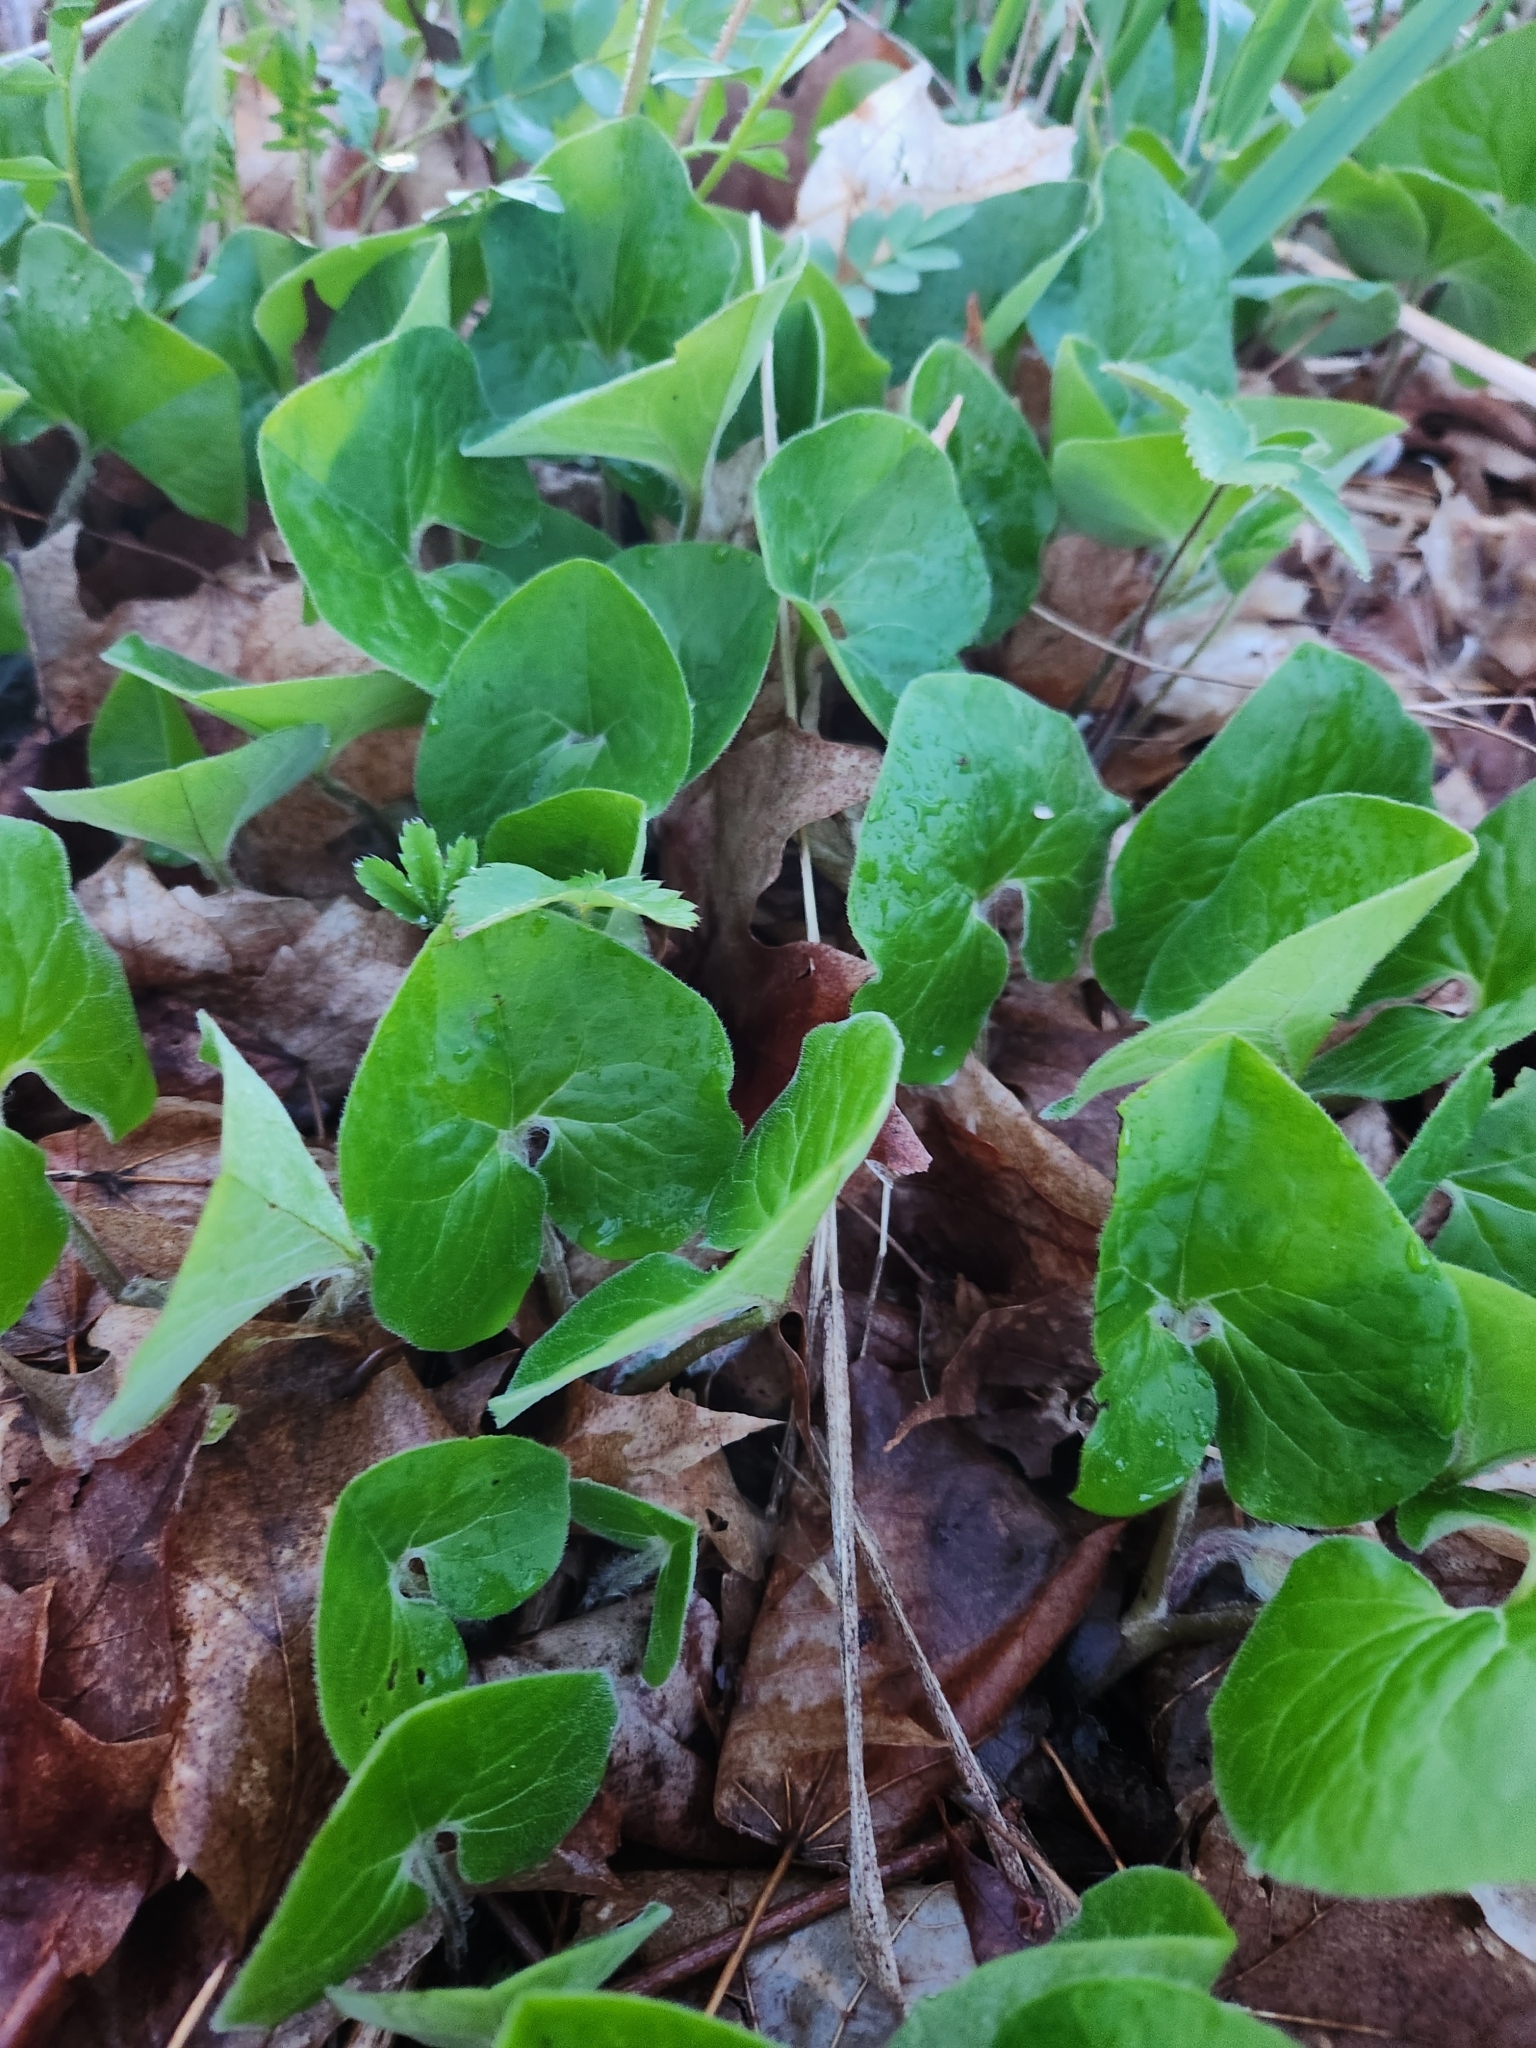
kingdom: Plantae
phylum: Tracheophyta
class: Magnoliopsida
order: Piperales
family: Aristolochiaceae
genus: Asarum
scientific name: Asarum canadense
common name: Wild ginger
